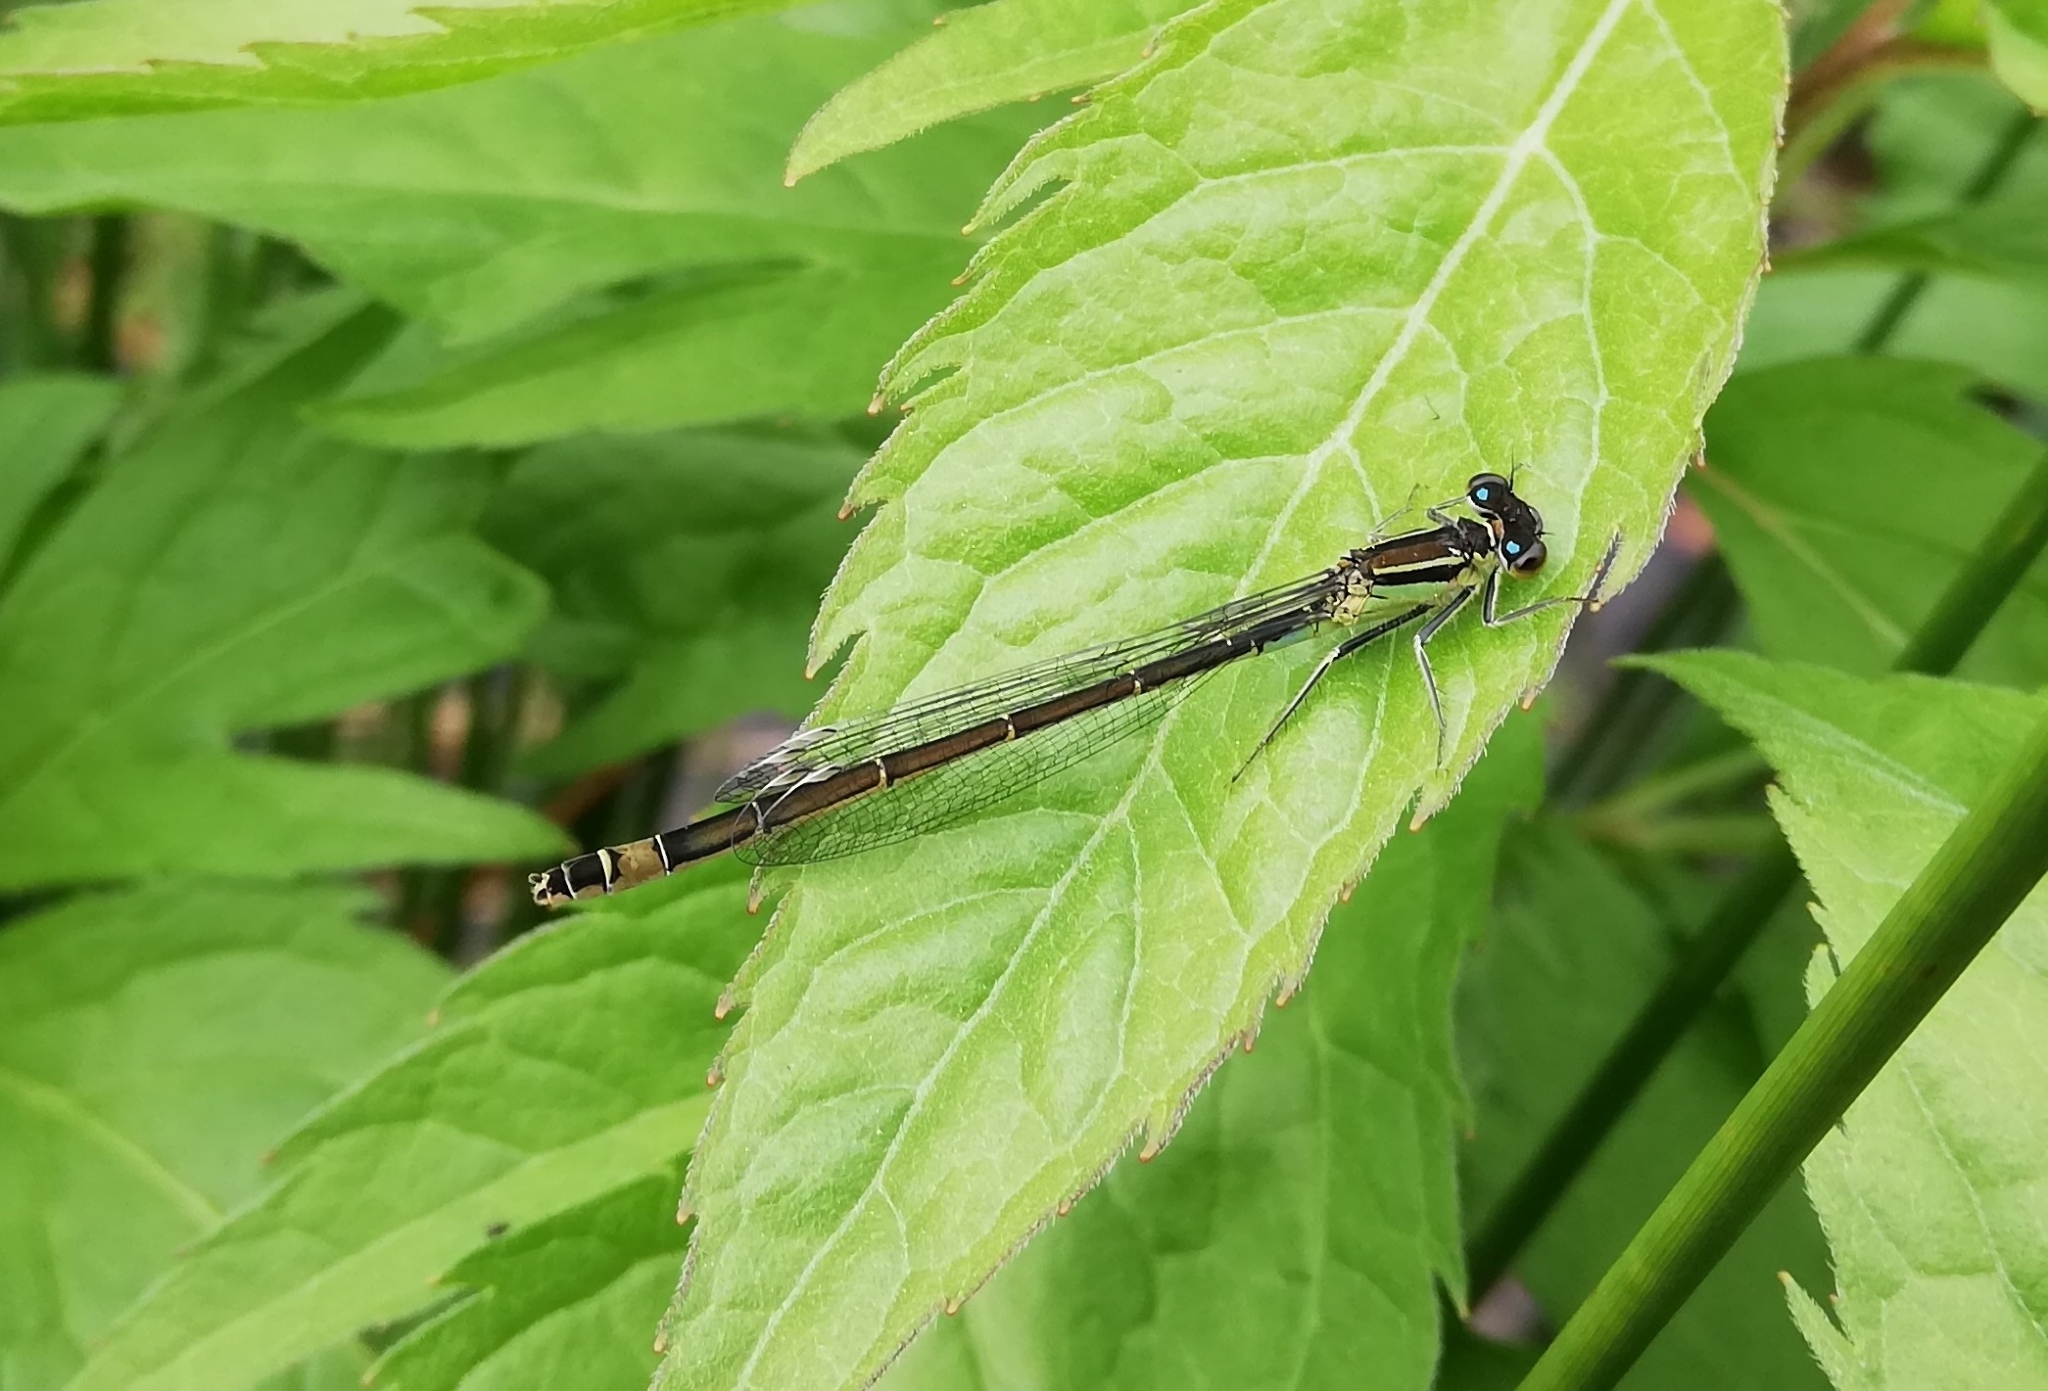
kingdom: Animalia
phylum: Arthropoda
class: Insecta
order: Odonata
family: Coenagrionidae
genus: Ischnura
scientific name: Ischnura elegans
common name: Blue-tailed damselfly
